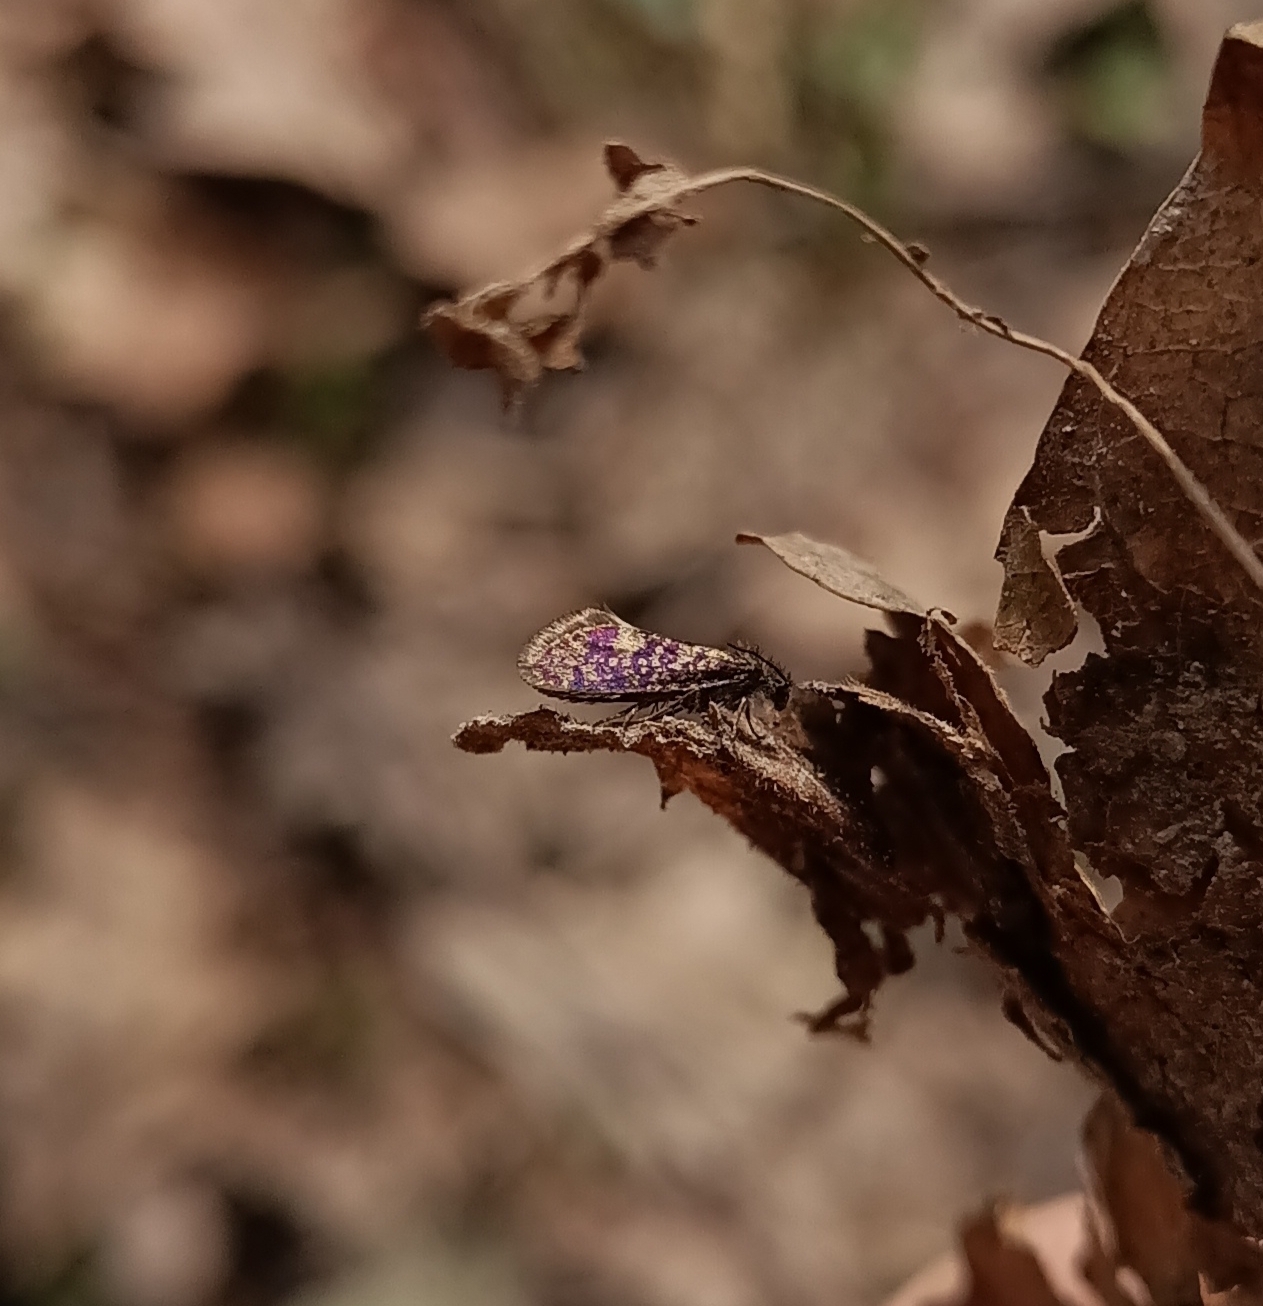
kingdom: Animalia
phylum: Arthropoda
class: Insecta
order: Lepidoptera
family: Eriocraniidae
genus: Eriocrania
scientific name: Eriocrania sparrmannella
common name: Mottled purple
